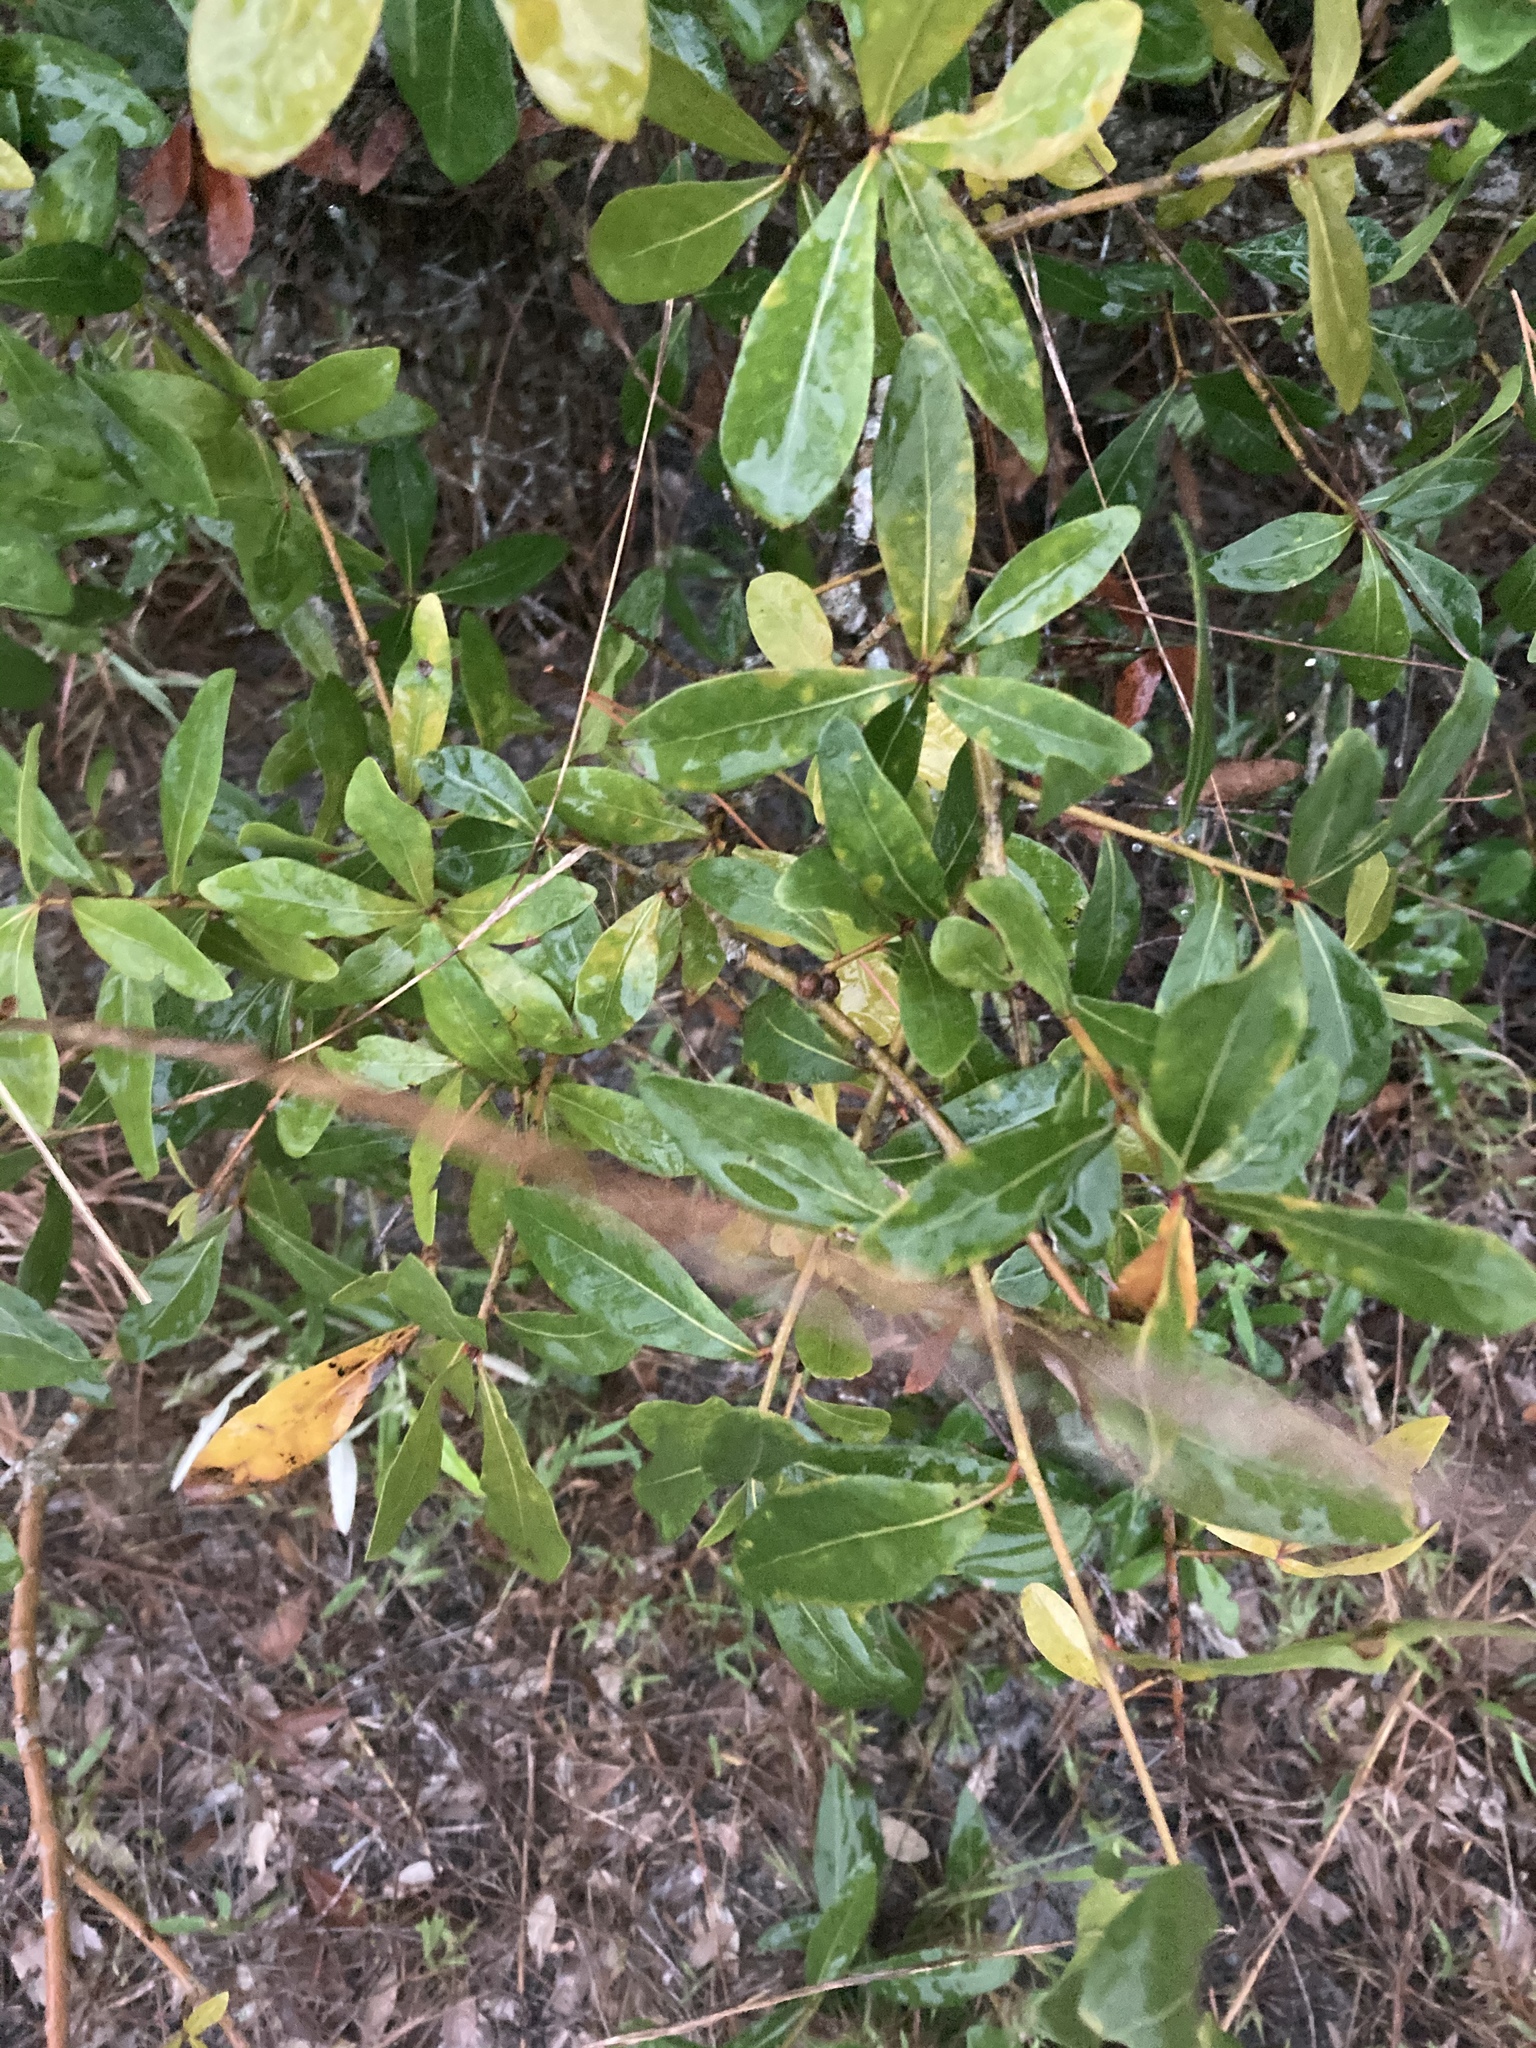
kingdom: Plantae
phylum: Tracheophyta
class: Magnoliopsida
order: Fagales
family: Fagaceae
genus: Quercus
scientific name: Quercus laurifolia
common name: Swamp laurel oak
